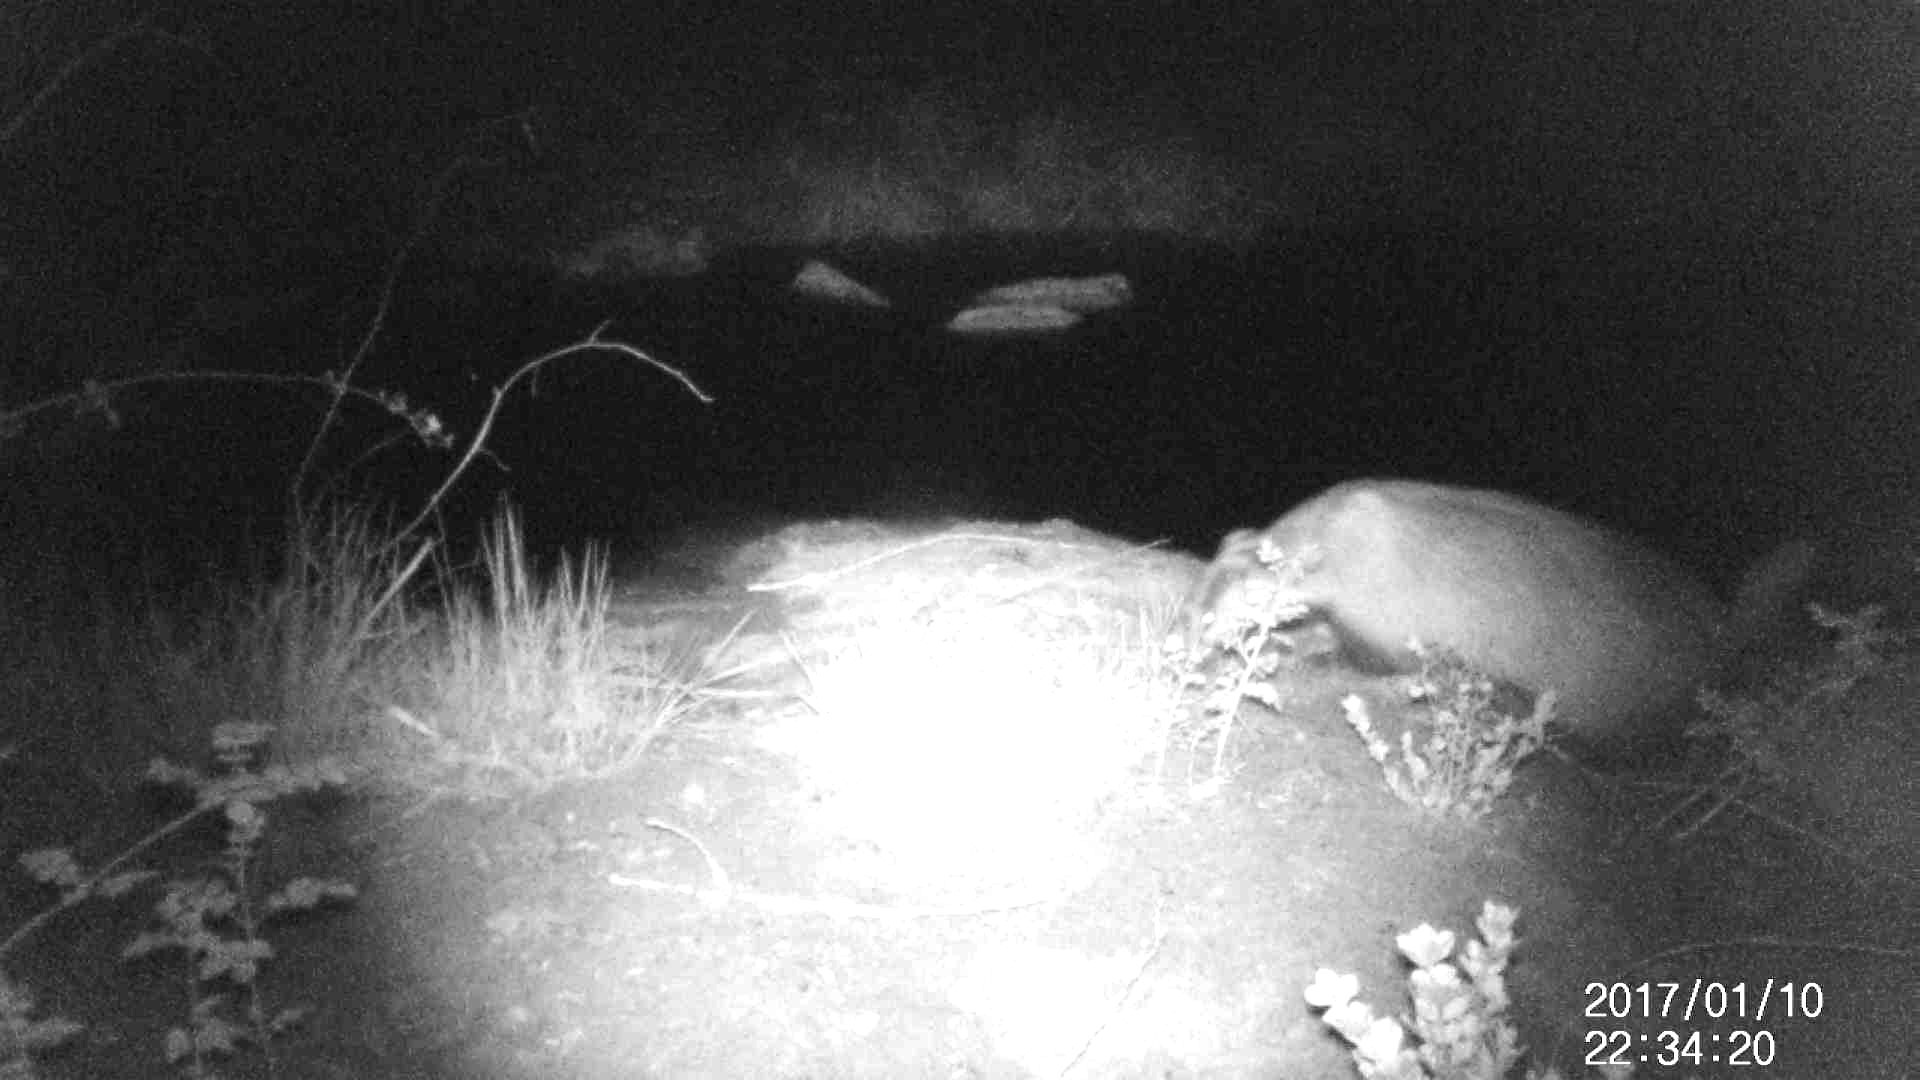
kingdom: Animalia
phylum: Chordata
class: Mammalia
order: Carnivora
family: Mustelidae
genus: Meles
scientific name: Meles meles
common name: Eurasian badger
